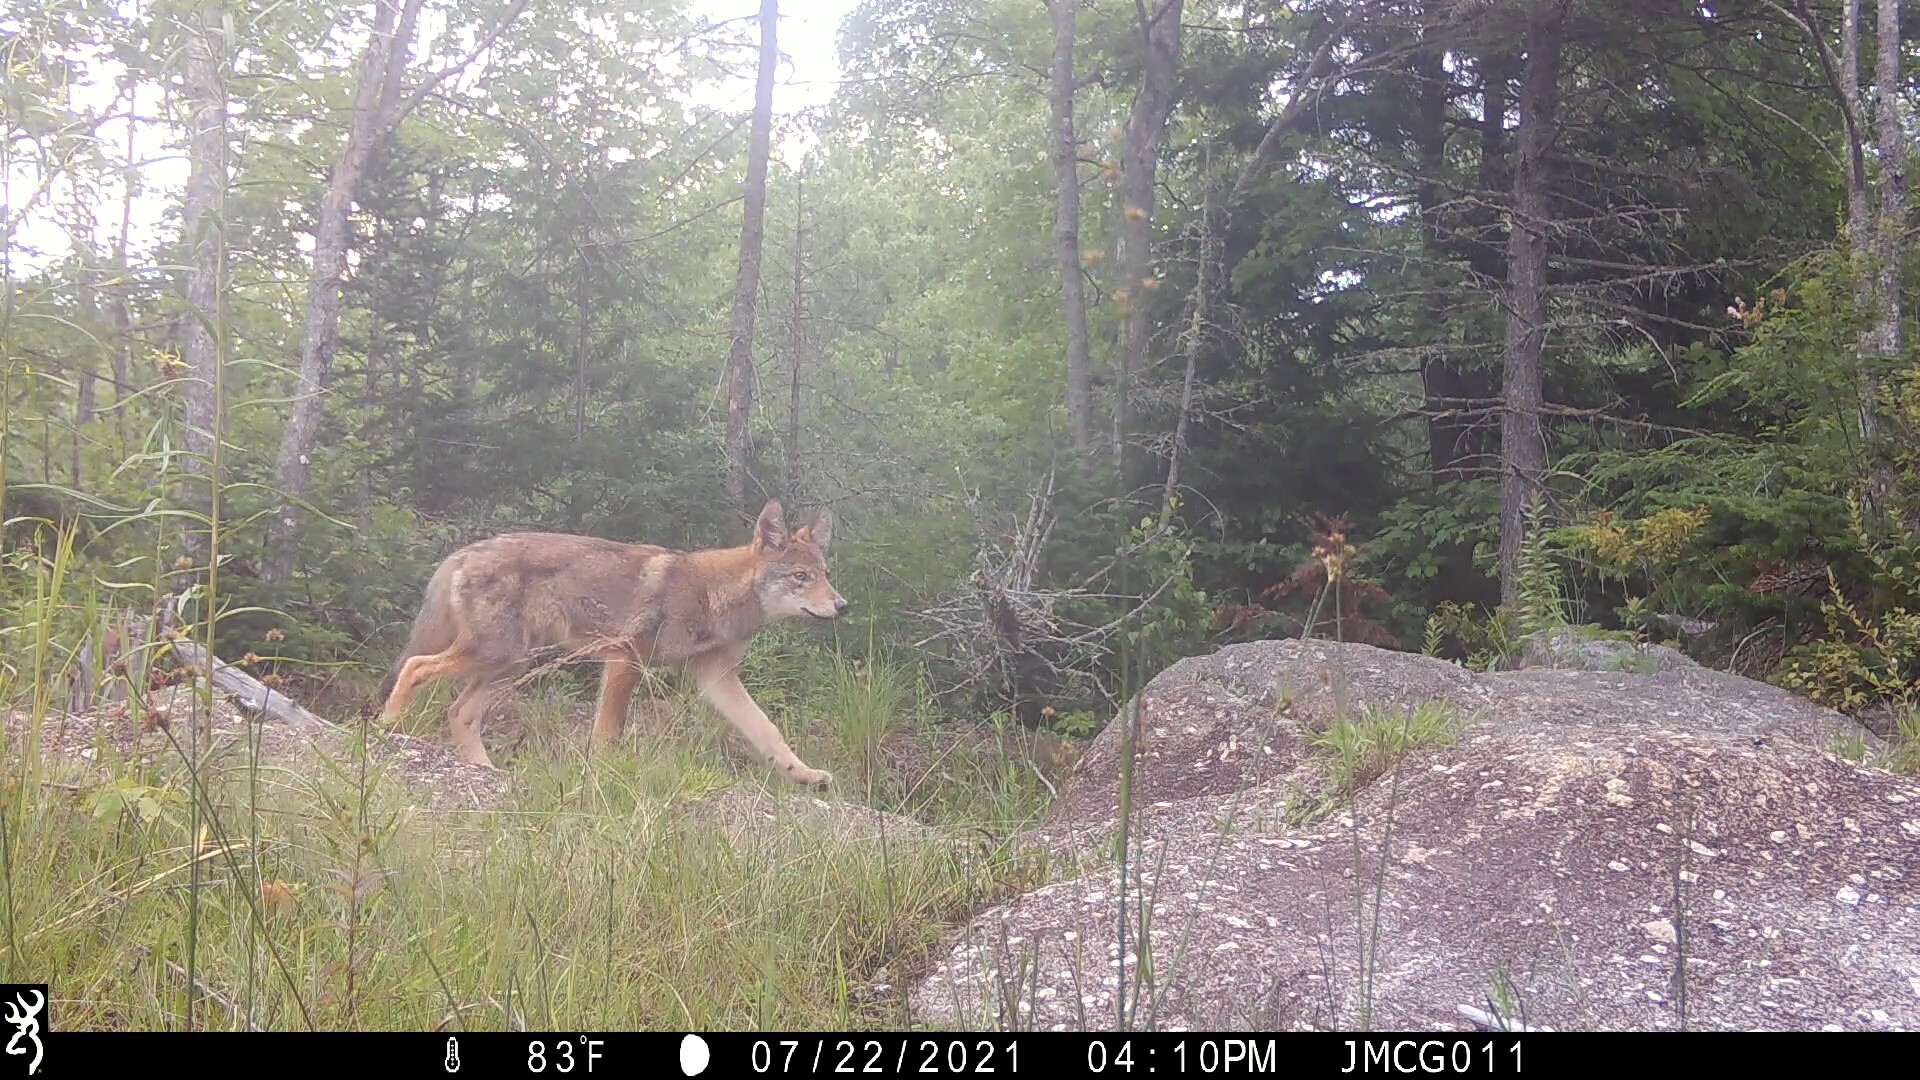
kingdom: Animalia
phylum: Chordata
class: Mammalia
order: Carnivora
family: Canidae
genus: Canis
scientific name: Canis latrans
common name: Coyote
